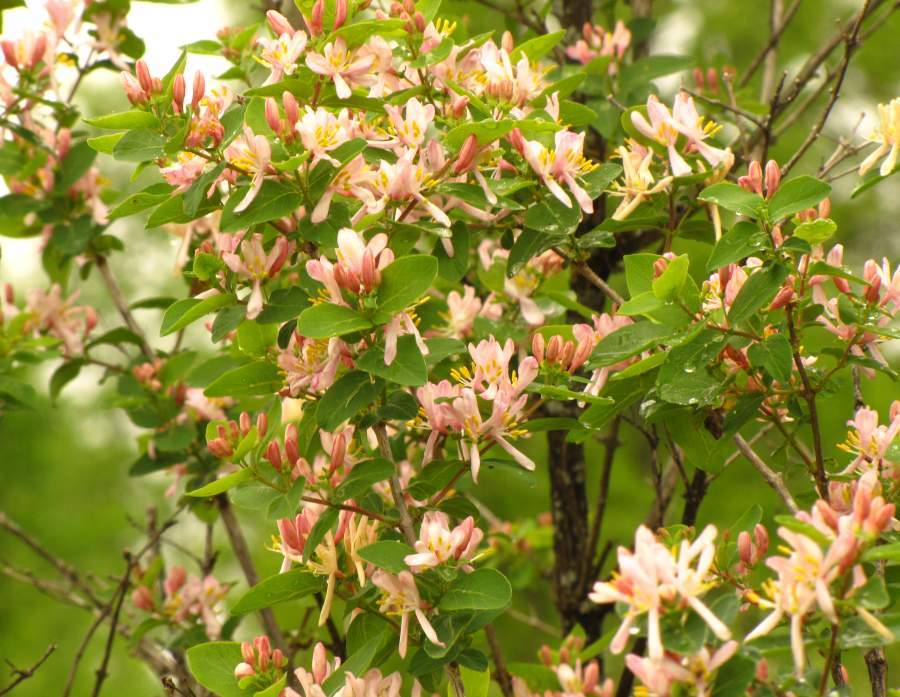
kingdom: Plantae
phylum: Tracheophyta
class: Magnoliopsida
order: Dipsacales
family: Caprifoliaceae
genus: Lonicera
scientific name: Lonicera tatarica
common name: Tatarian honeysuckle
